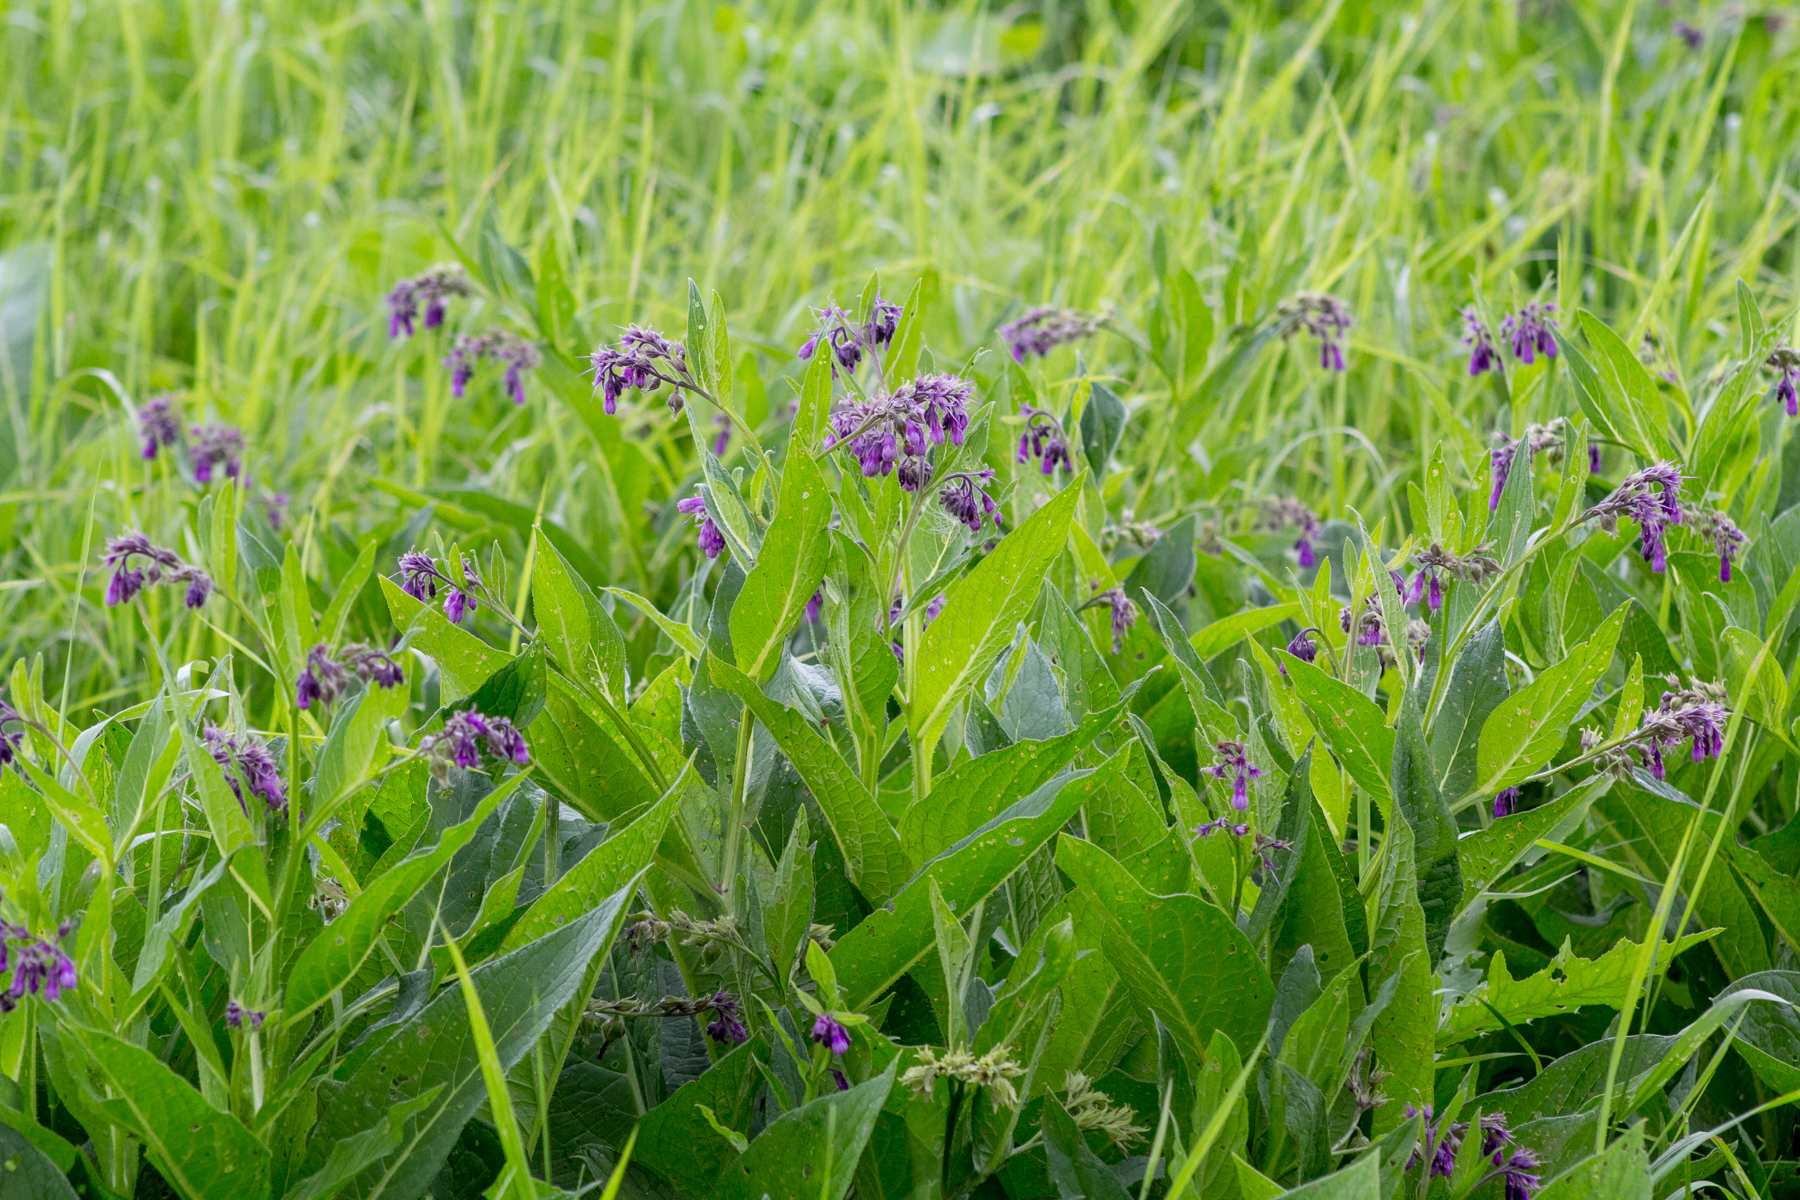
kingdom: Plantae
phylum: Tracheophyta
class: Magnoliopsida
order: Boraginales
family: Boraginaceae
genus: Symphytum
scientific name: Symphytum officinale
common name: Common comfrey
